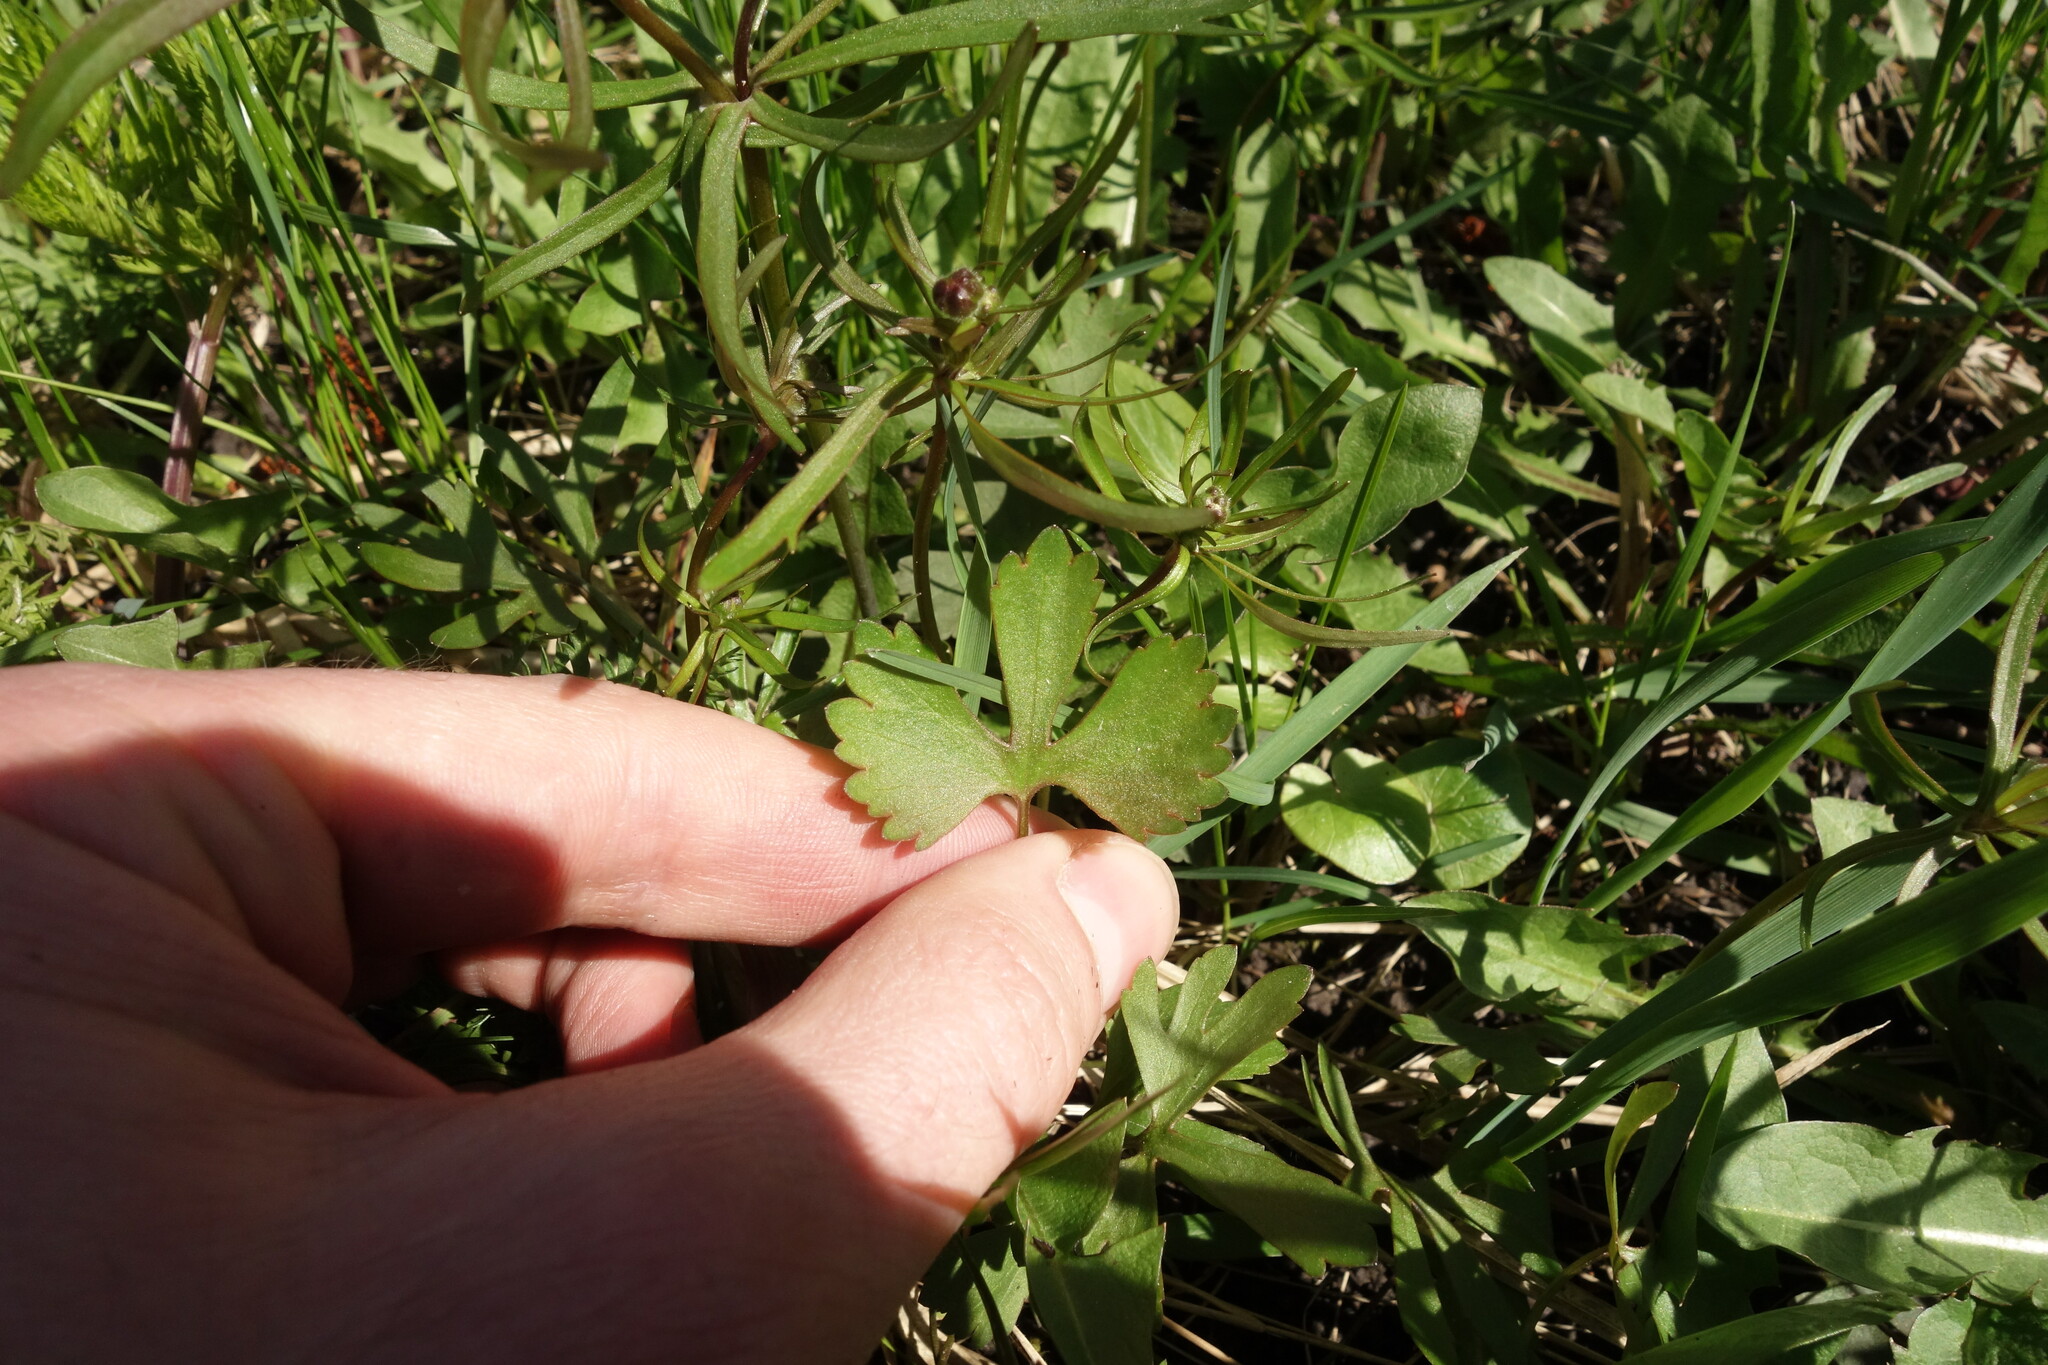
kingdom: Plantae
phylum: Tracheophyta
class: Magnoliopsida
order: Ranunculales
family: Ranunculaceae
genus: Ranunculus
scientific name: Ranunculus auricomus
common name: Goldilocks buttercup
